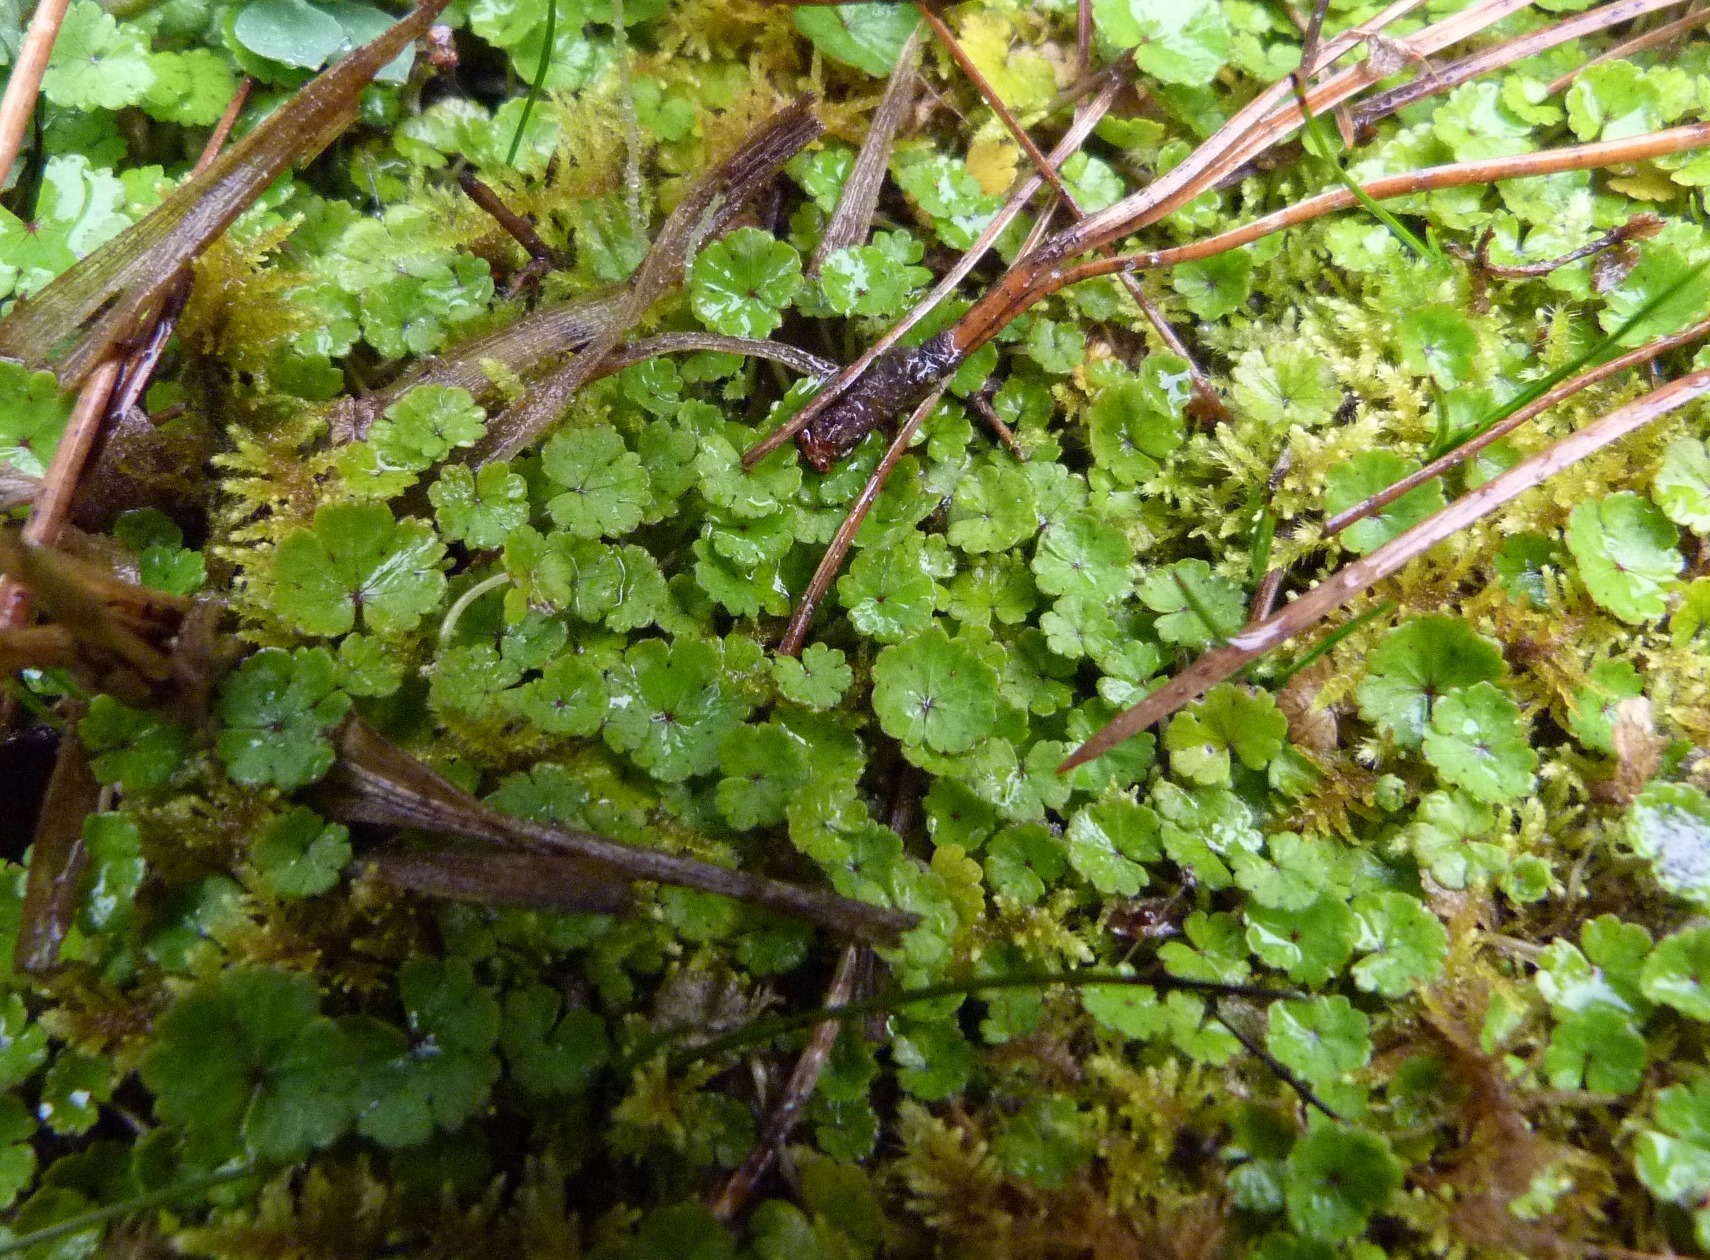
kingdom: Plantae
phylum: Tracheophyta
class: Magnoliopsida
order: Apiales
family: Araliaceae
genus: Hydrocotyle
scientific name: Hydrocotyle microphylla
